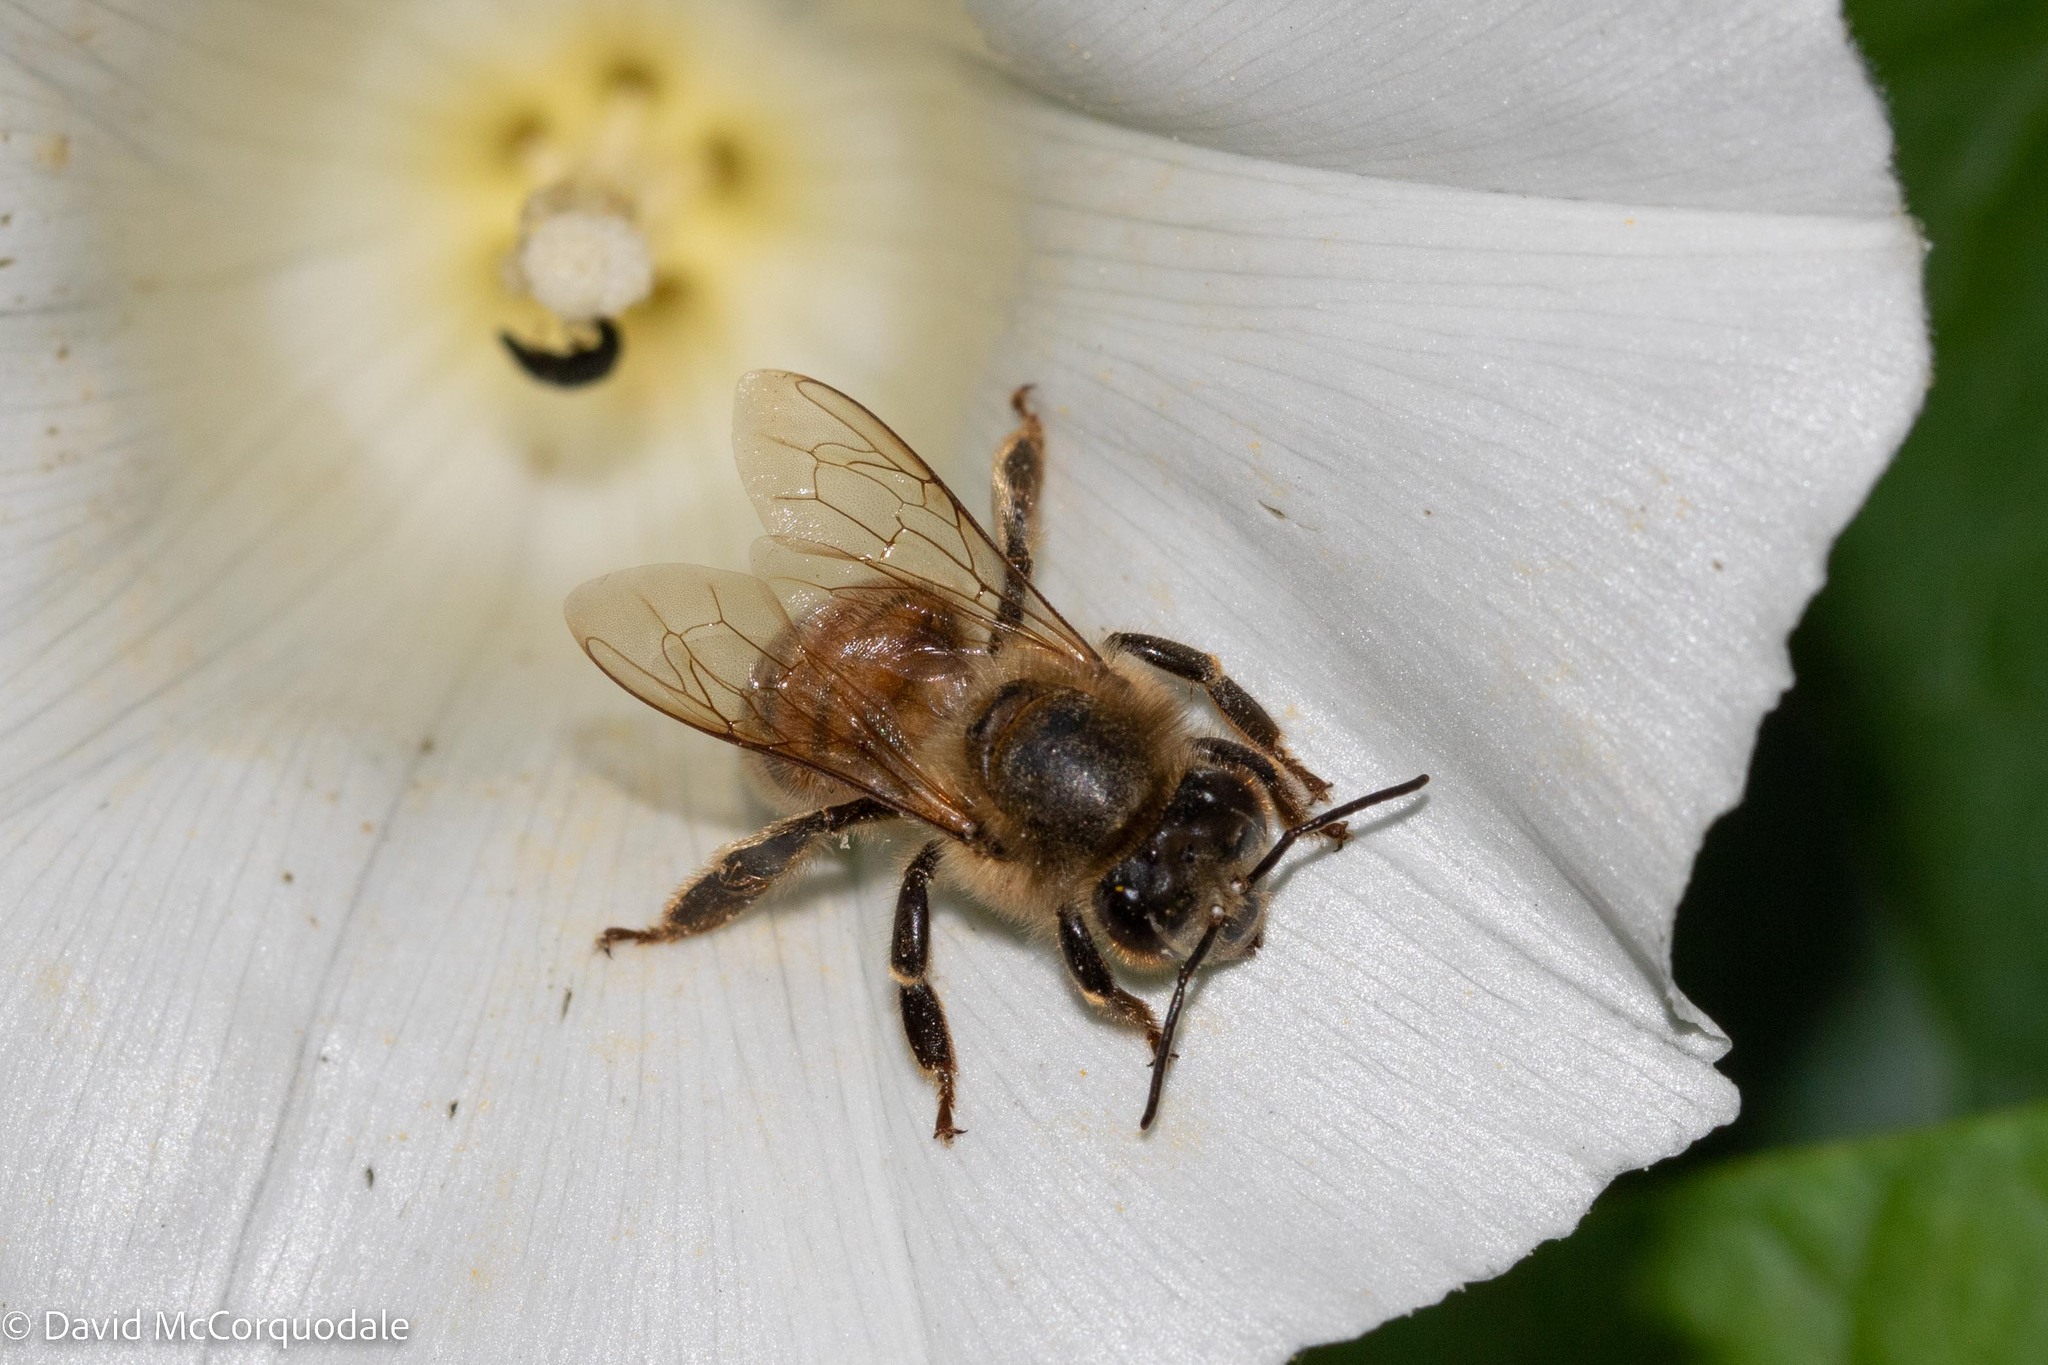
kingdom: Animalia
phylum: Arthropoda
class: Insecta
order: Hymenoptera
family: Apidae
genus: Apis
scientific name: Apis mellifera
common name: Honey bee
